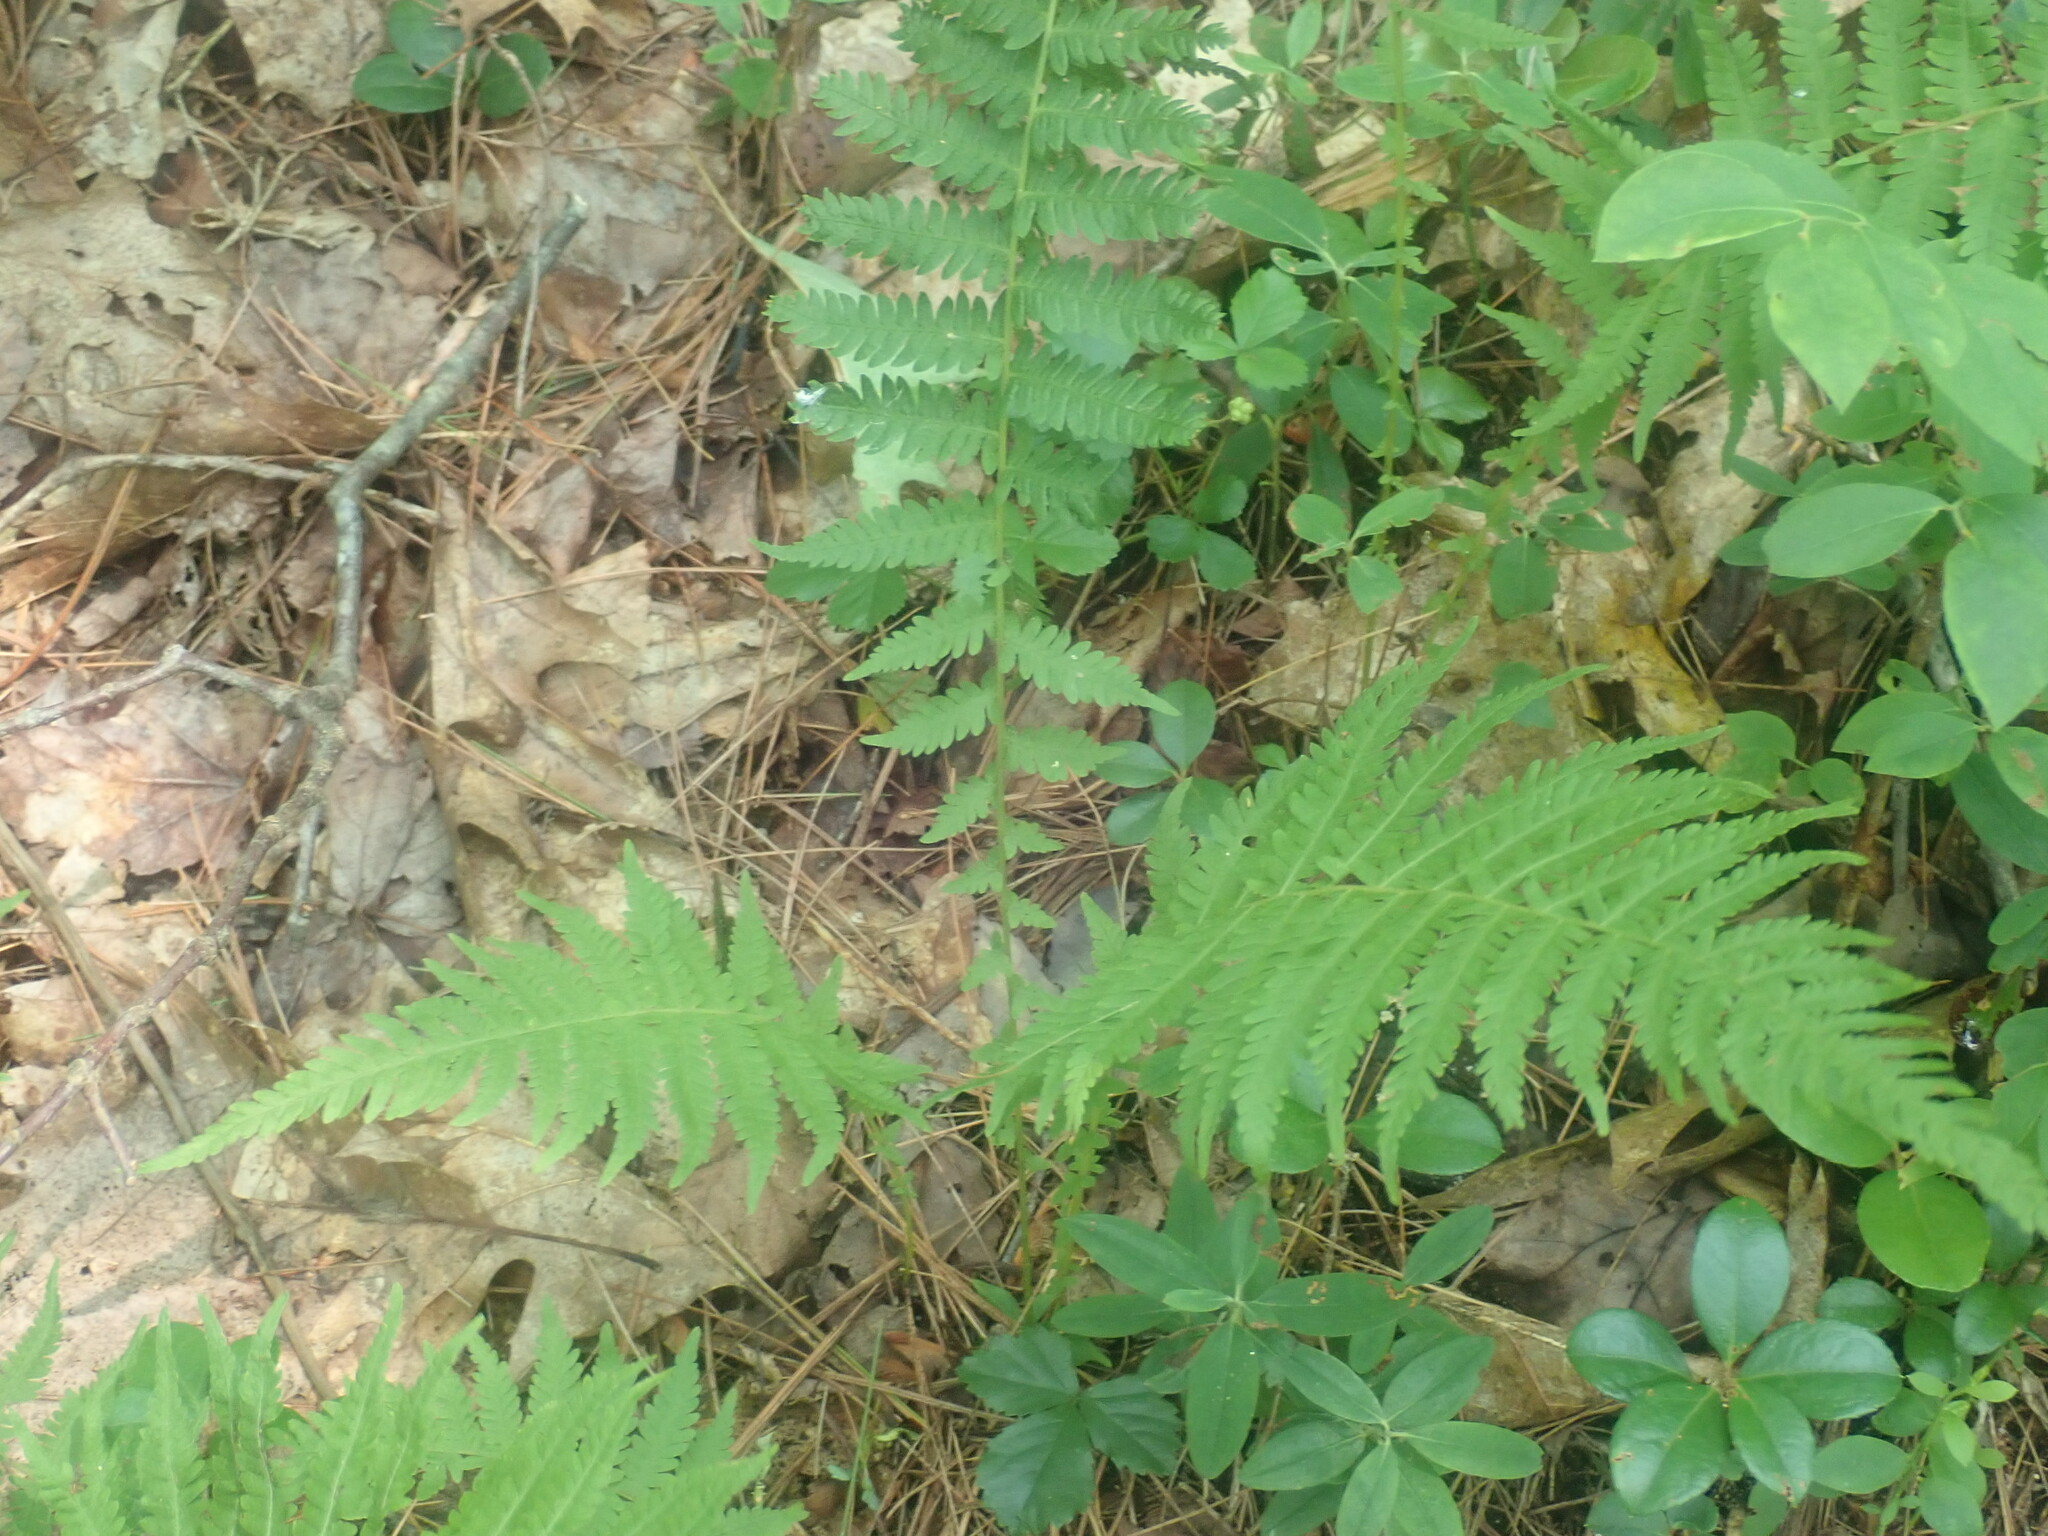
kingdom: Plantae
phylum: Tracheophyta
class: Polypodiopsida
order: Polypodiales
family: Thelypteridaceae
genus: Amauropelta
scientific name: Amauropelta noveboracensis
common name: New york fern
